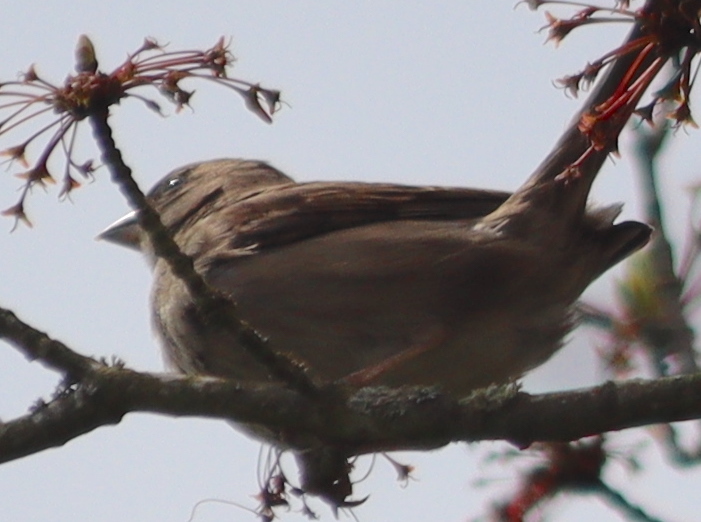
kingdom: Animalia
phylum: Chordata
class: Aves
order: Passeriformes
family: Passeridae
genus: Passer
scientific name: Passer domesticus
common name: House sparrow
